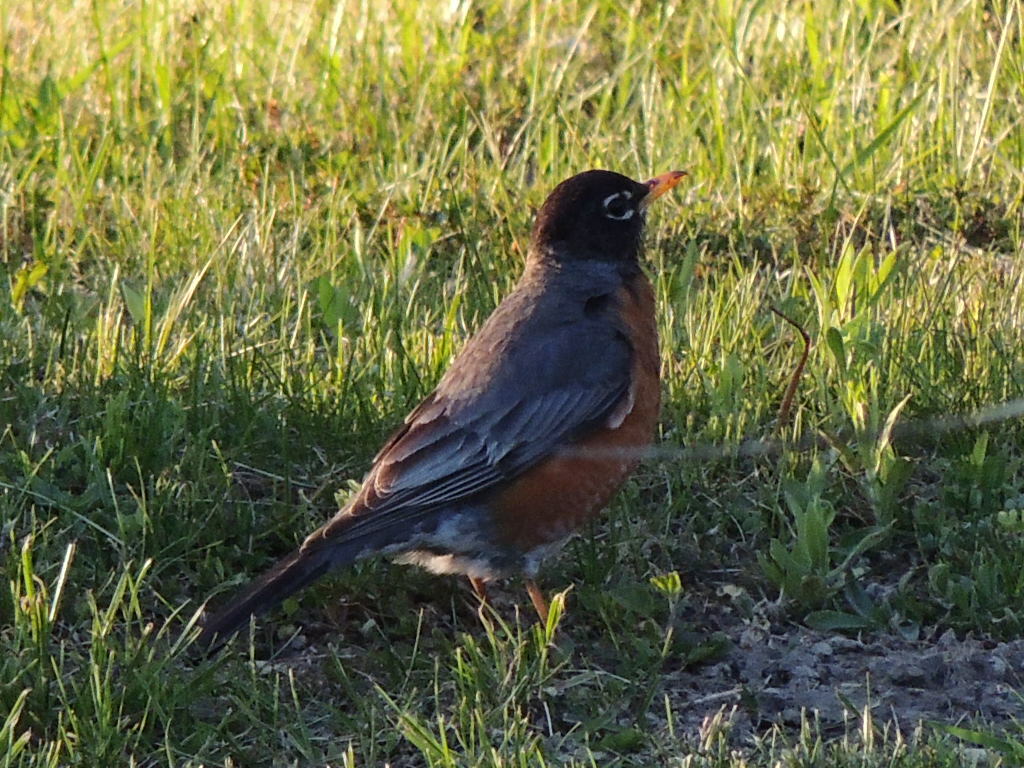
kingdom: Animalia
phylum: Chordata
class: Aves
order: Passeriformes
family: Turdidae
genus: Turdus
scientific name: Turdus migratorius
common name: American robin
